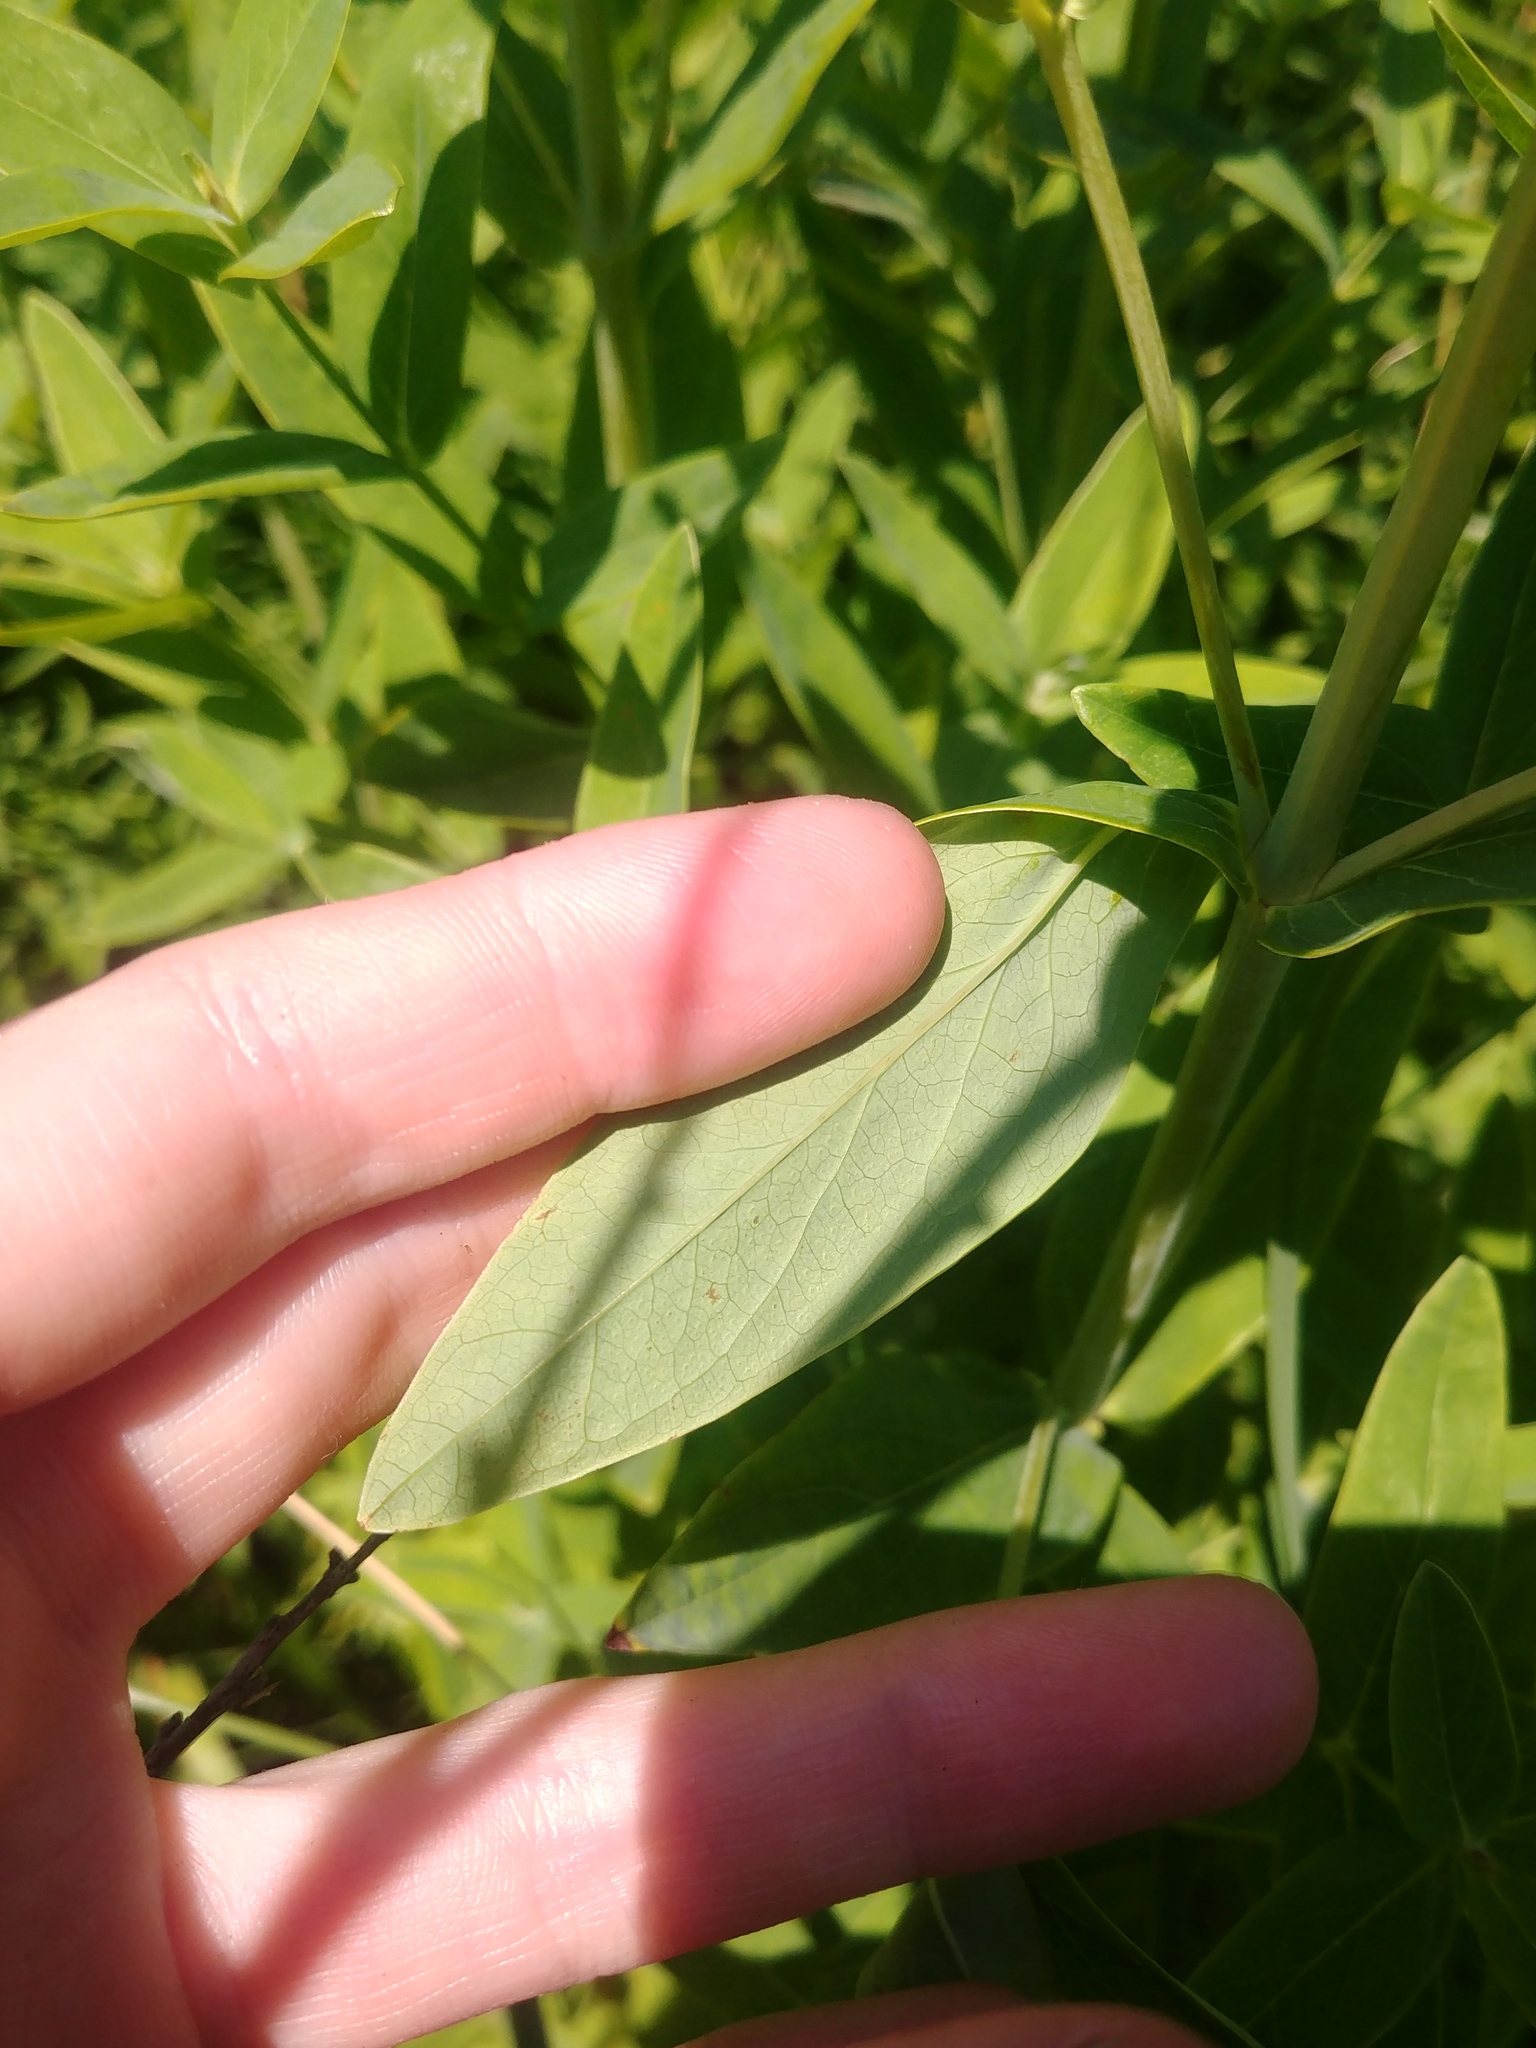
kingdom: Plantae
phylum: Tracheophyta
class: Magnoliopsida
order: Malpighiales
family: Hypericaceae
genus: Hypericum
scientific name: Hypericum ascyron
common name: Giant st. john's-wort
